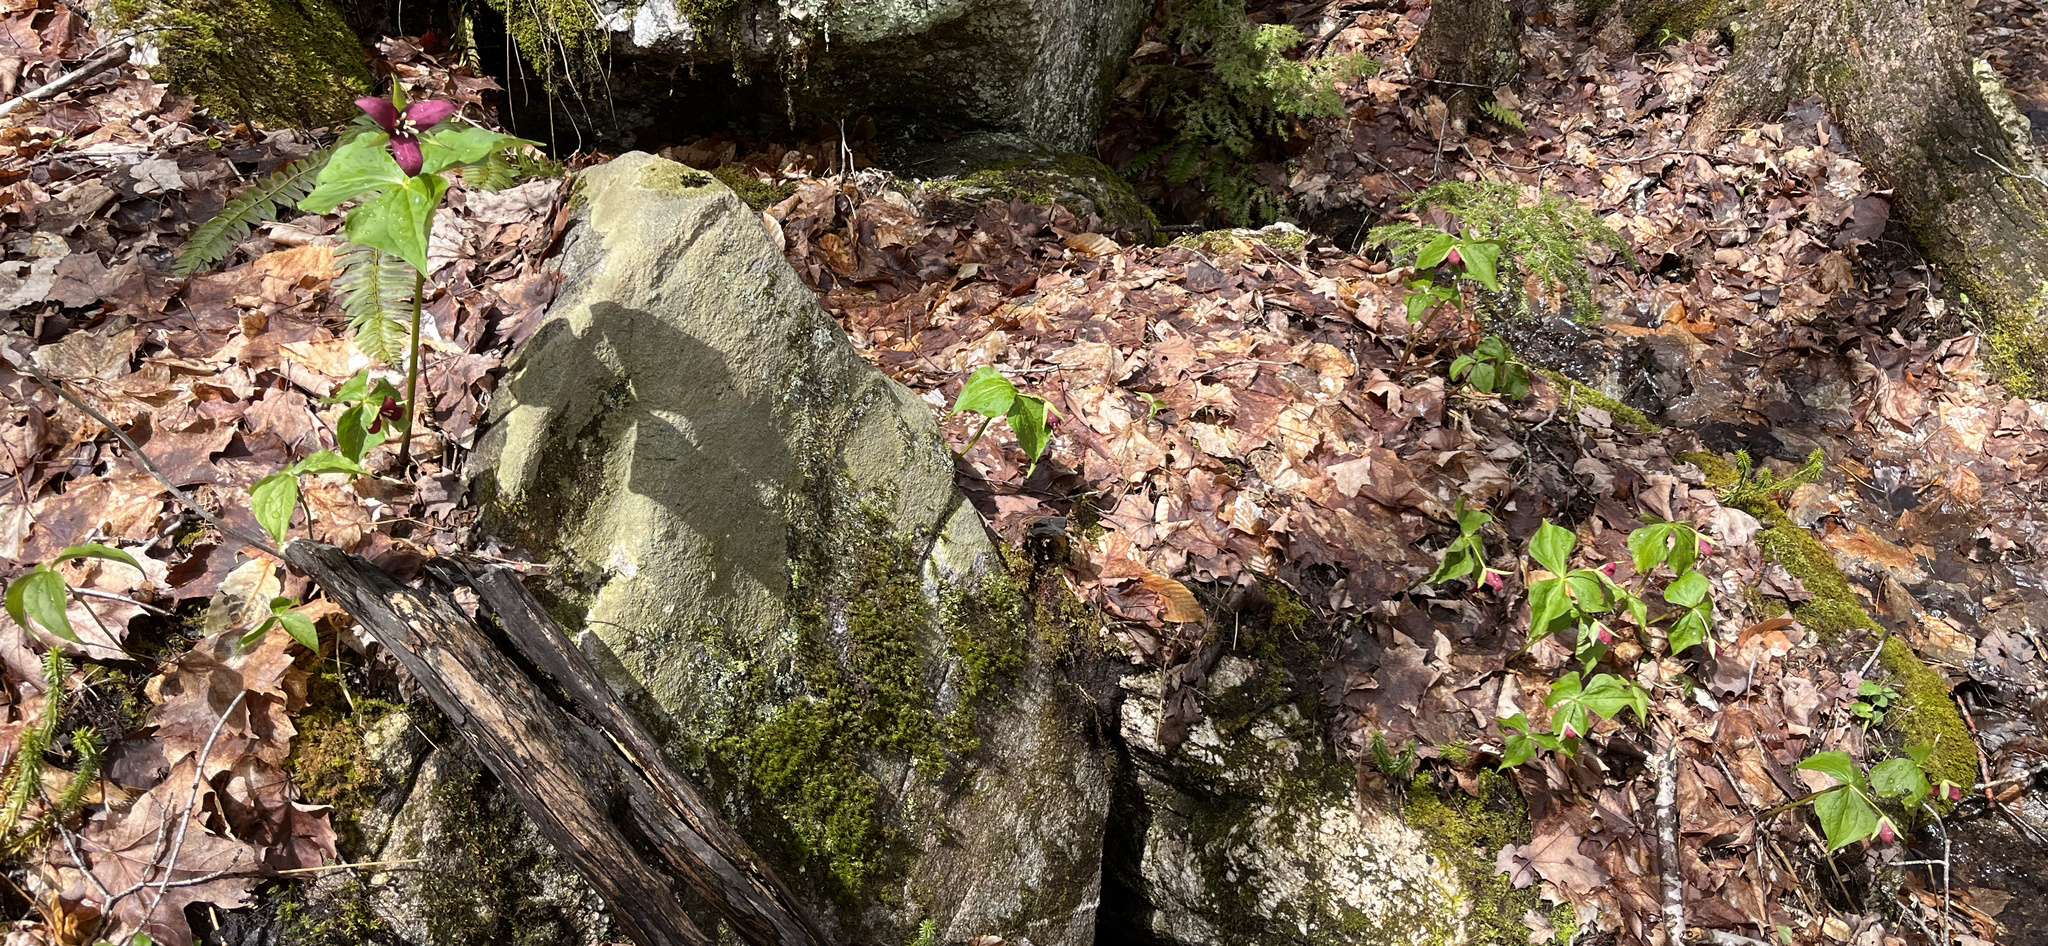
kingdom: Plantae
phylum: Tracheophyta
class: Liliopsida
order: Liliales
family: Melanthiaceae
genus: Trillium
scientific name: Trillium erectum
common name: Purple trillium
